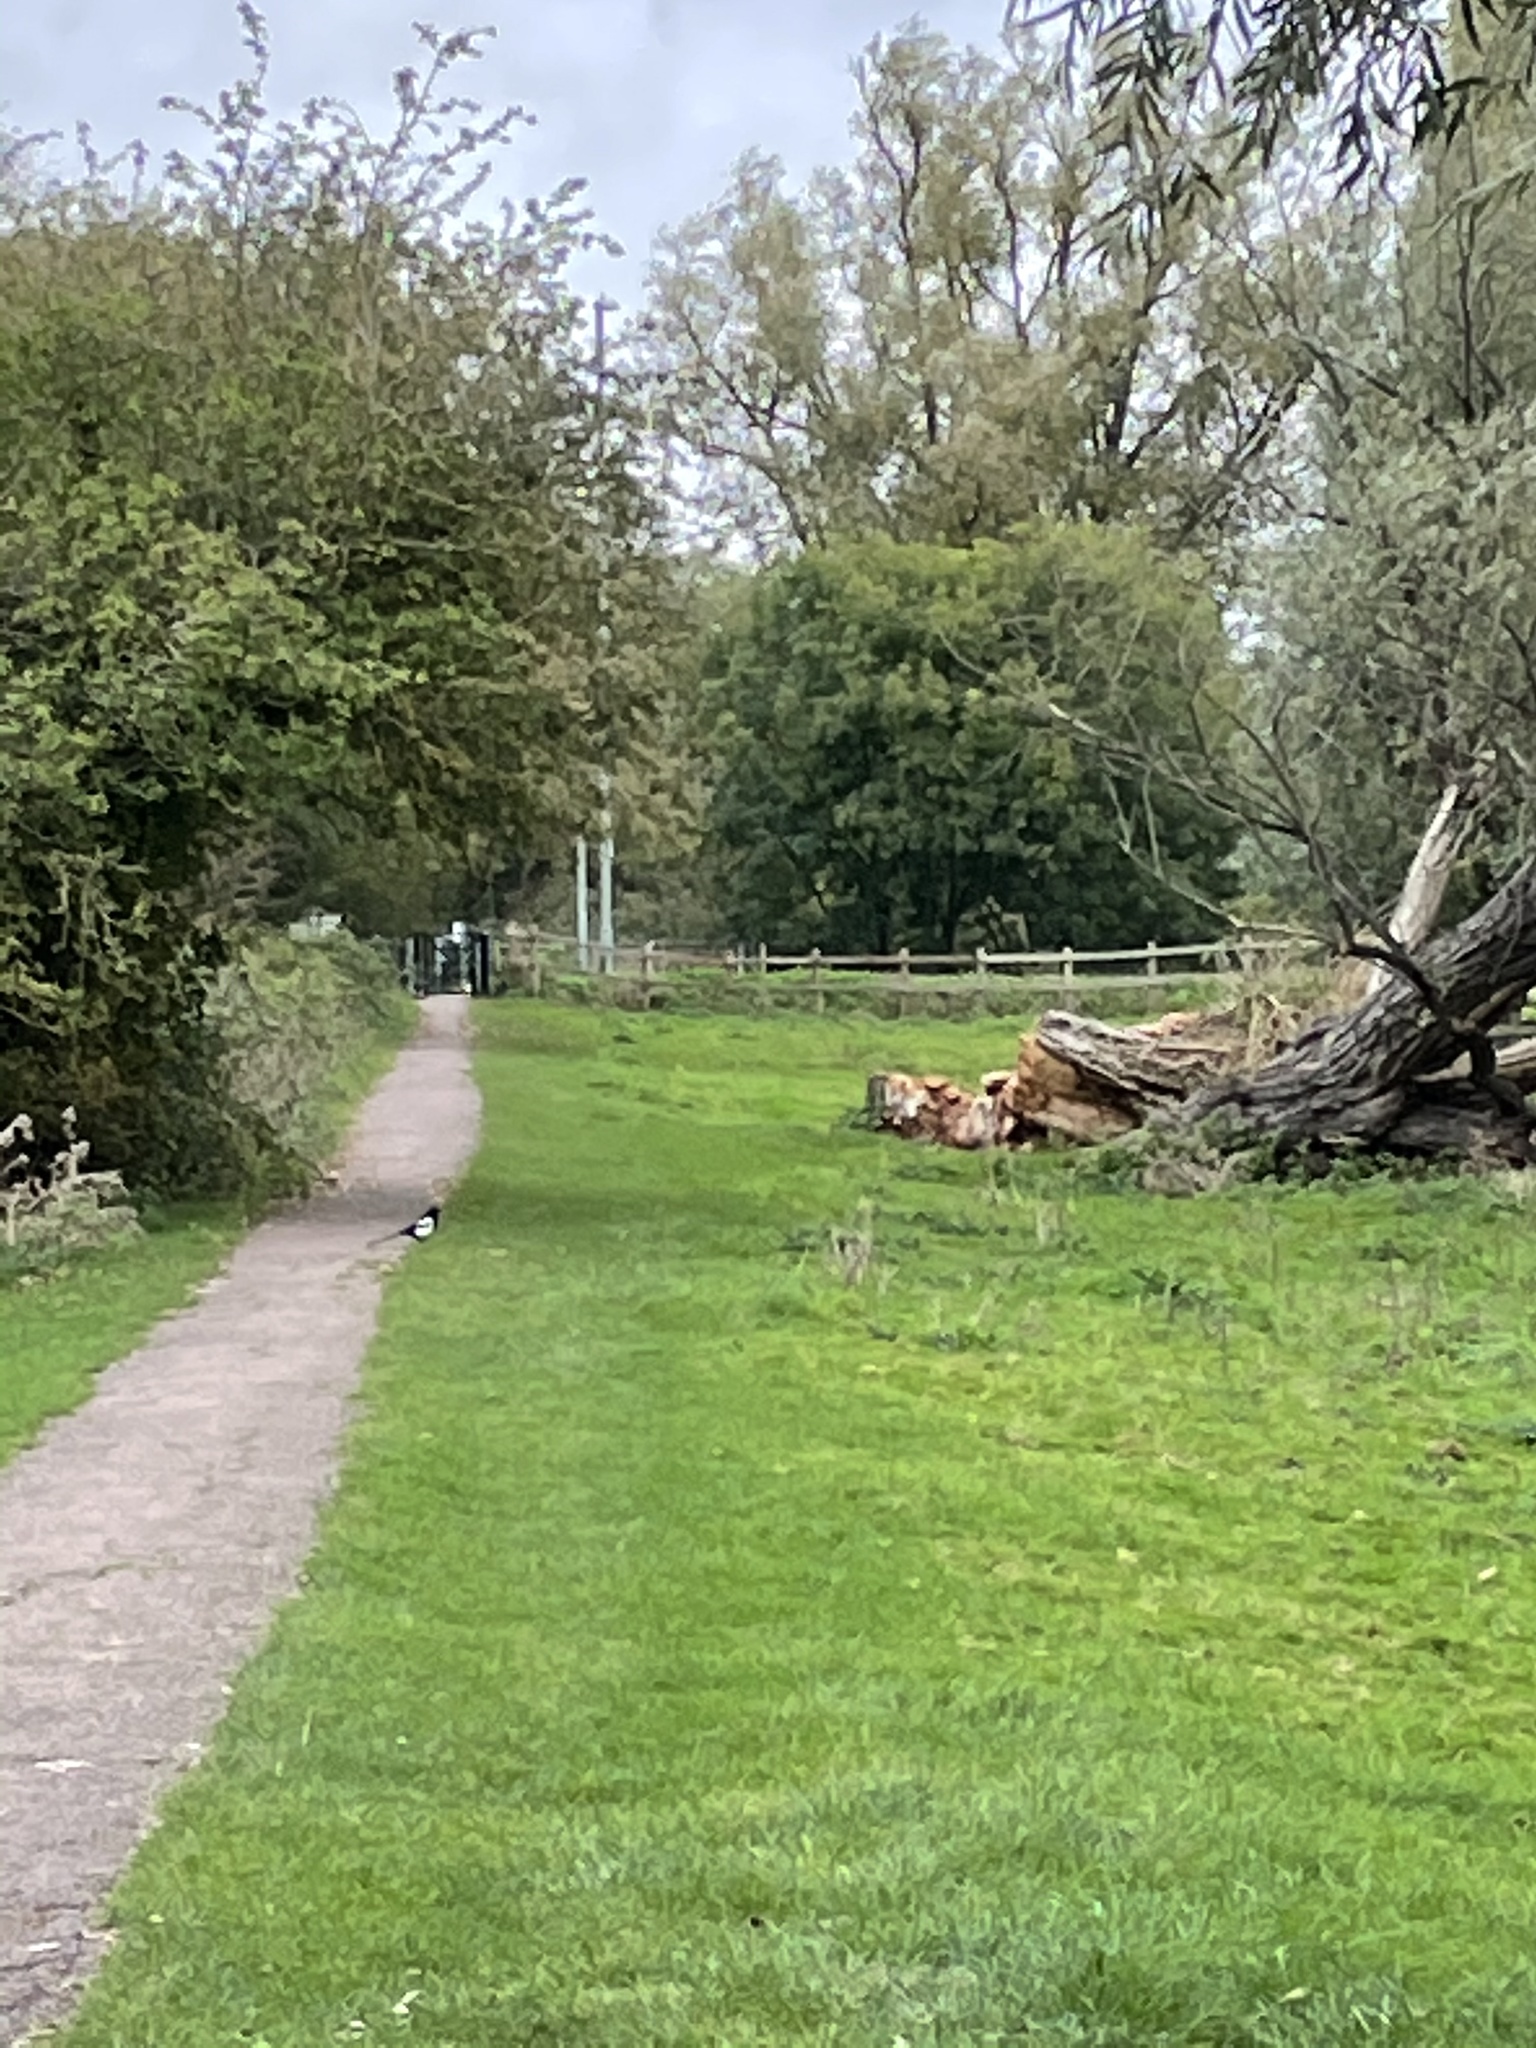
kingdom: Animalia
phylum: Chordata
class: Aves
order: Passeriformes
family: Corvidae
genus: Pica
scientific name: Pica pica
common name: Eurasian magpie
